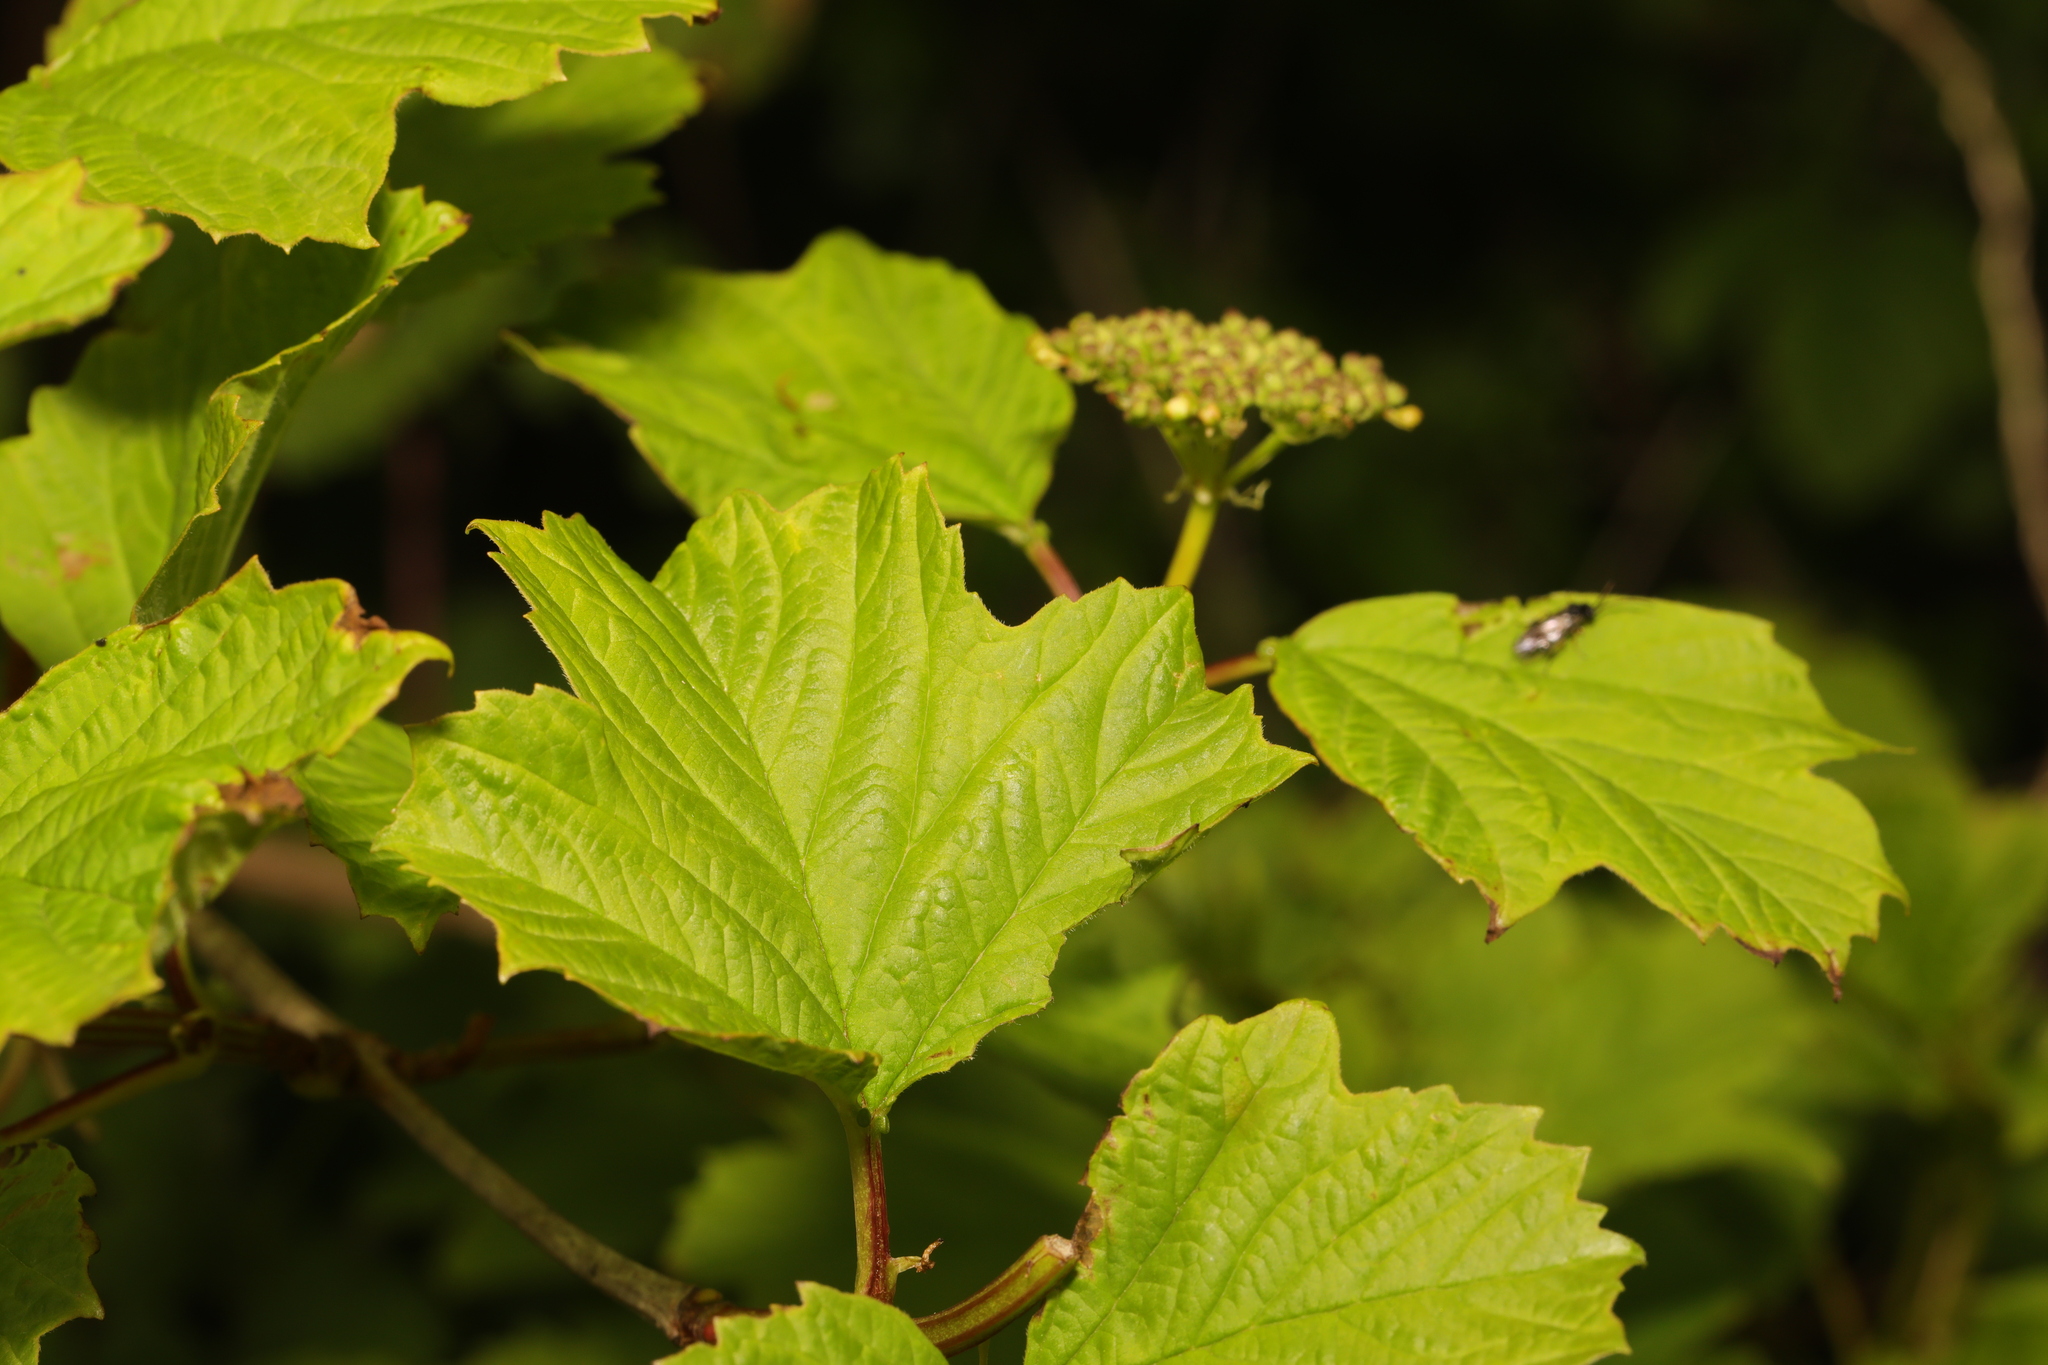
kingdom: Plantae
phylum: Tracheophyta
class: Magnoliopsida
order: Dipsacales
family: Viburnaceae
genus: Viburnum
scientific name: Viburnum opulus
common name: Guelder-rose
